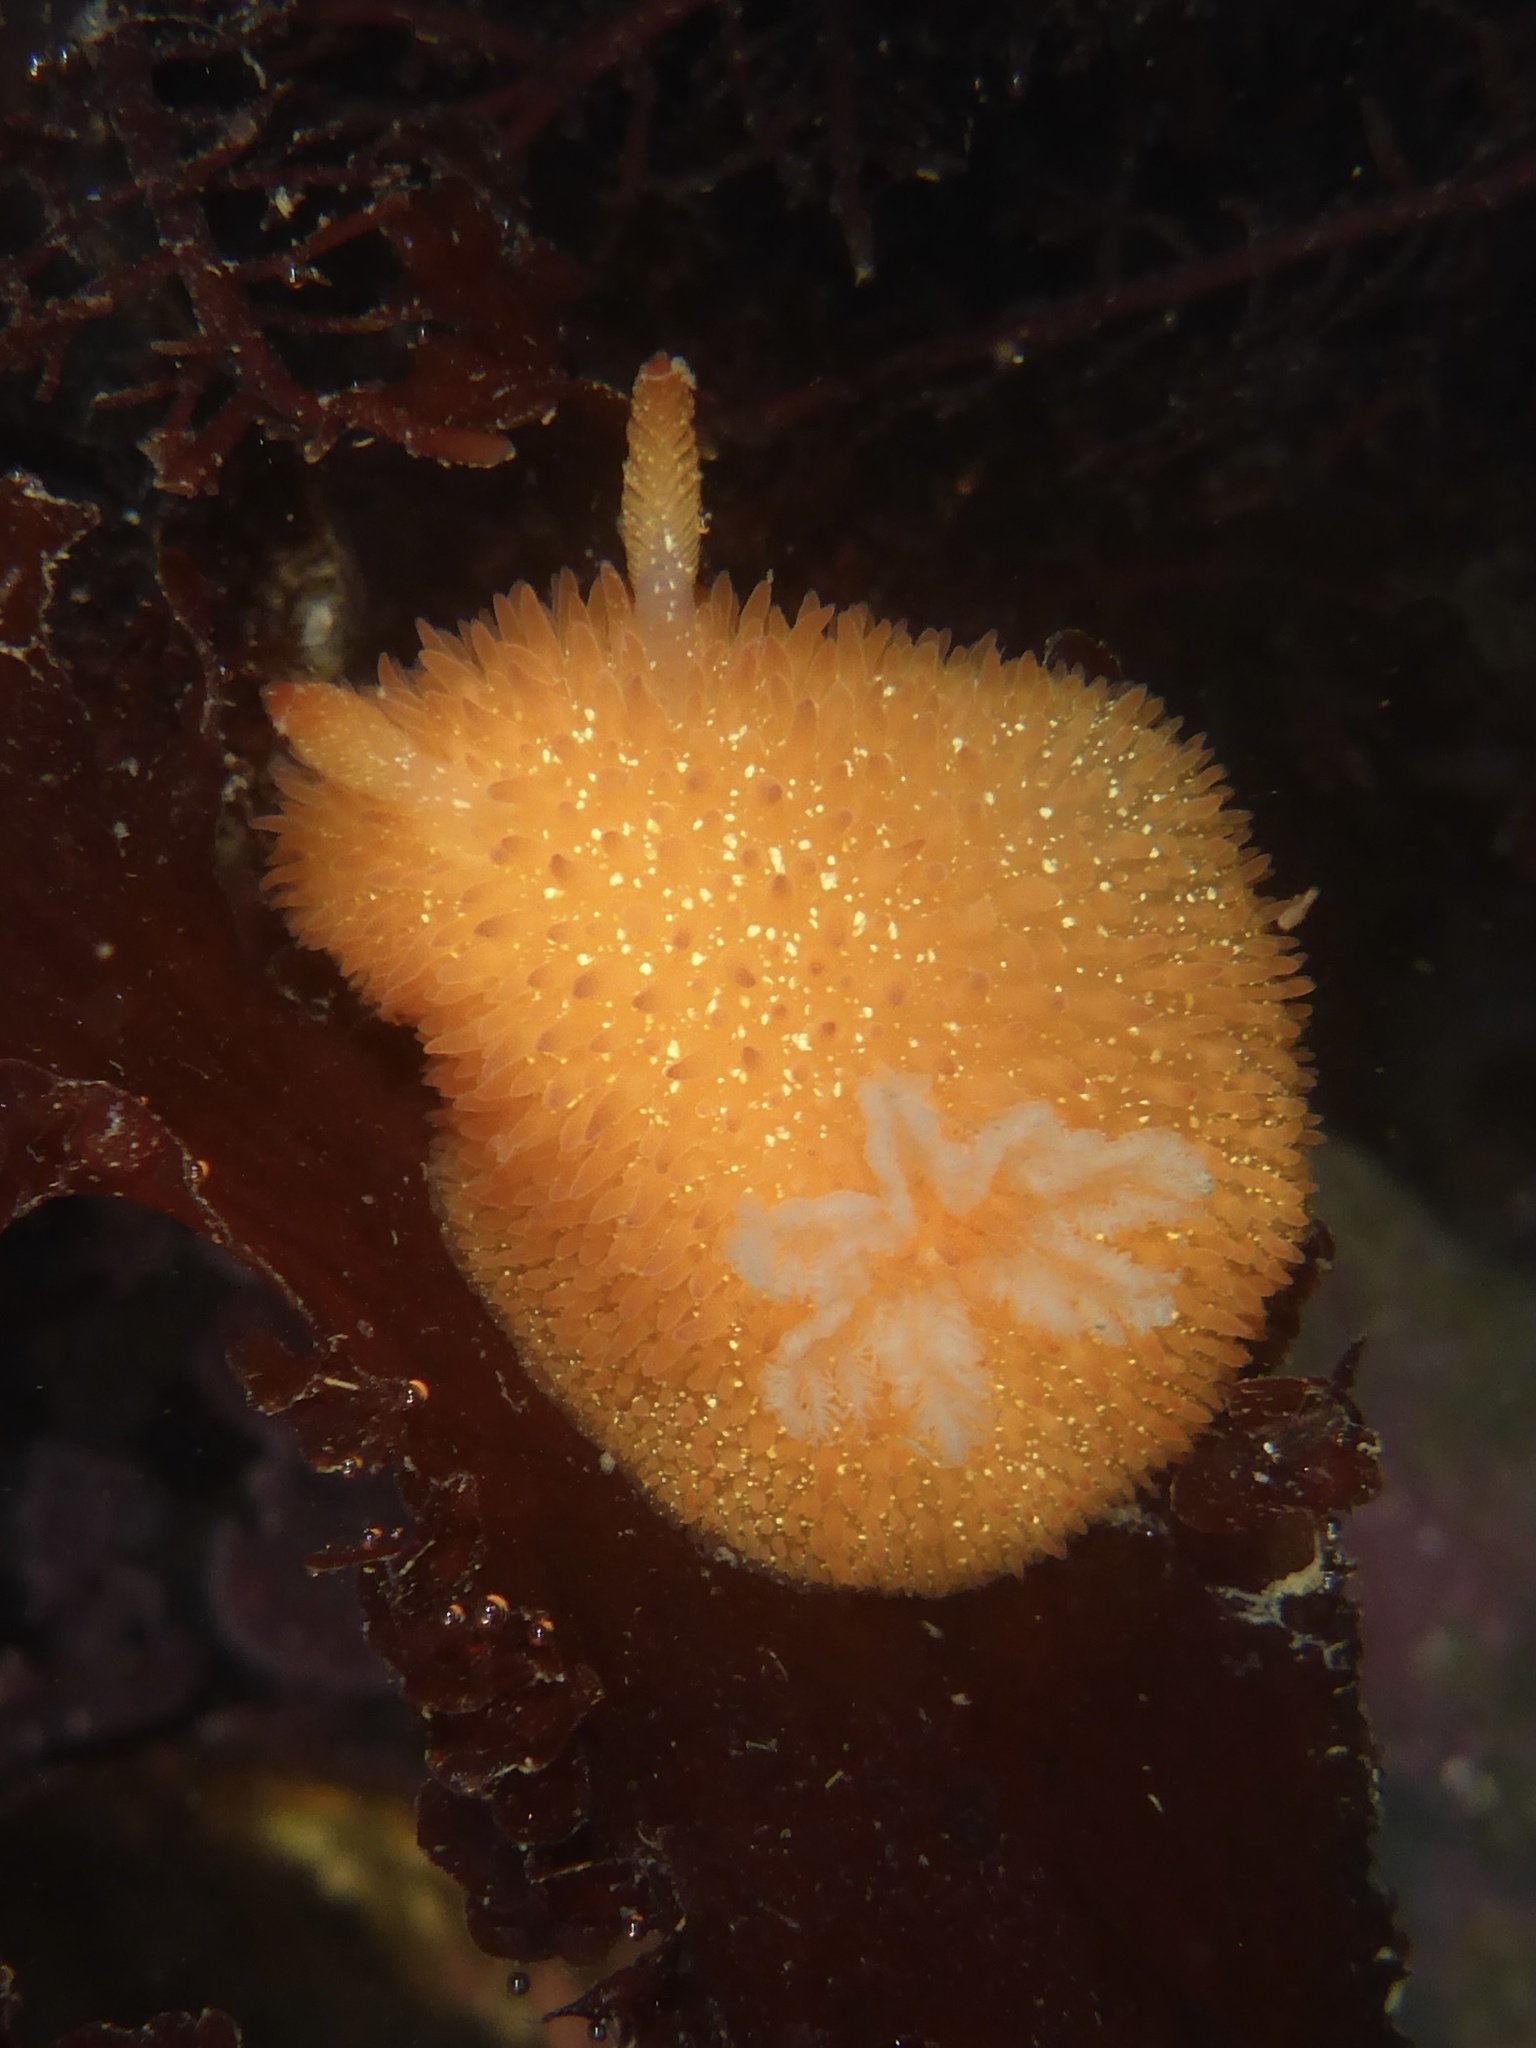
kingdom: Animalia
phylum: Mollusca
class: Gastropoda
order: Nudibranchia
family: Onchidorididae
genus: Acanthodoris
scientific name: Acanthodoris lutea
